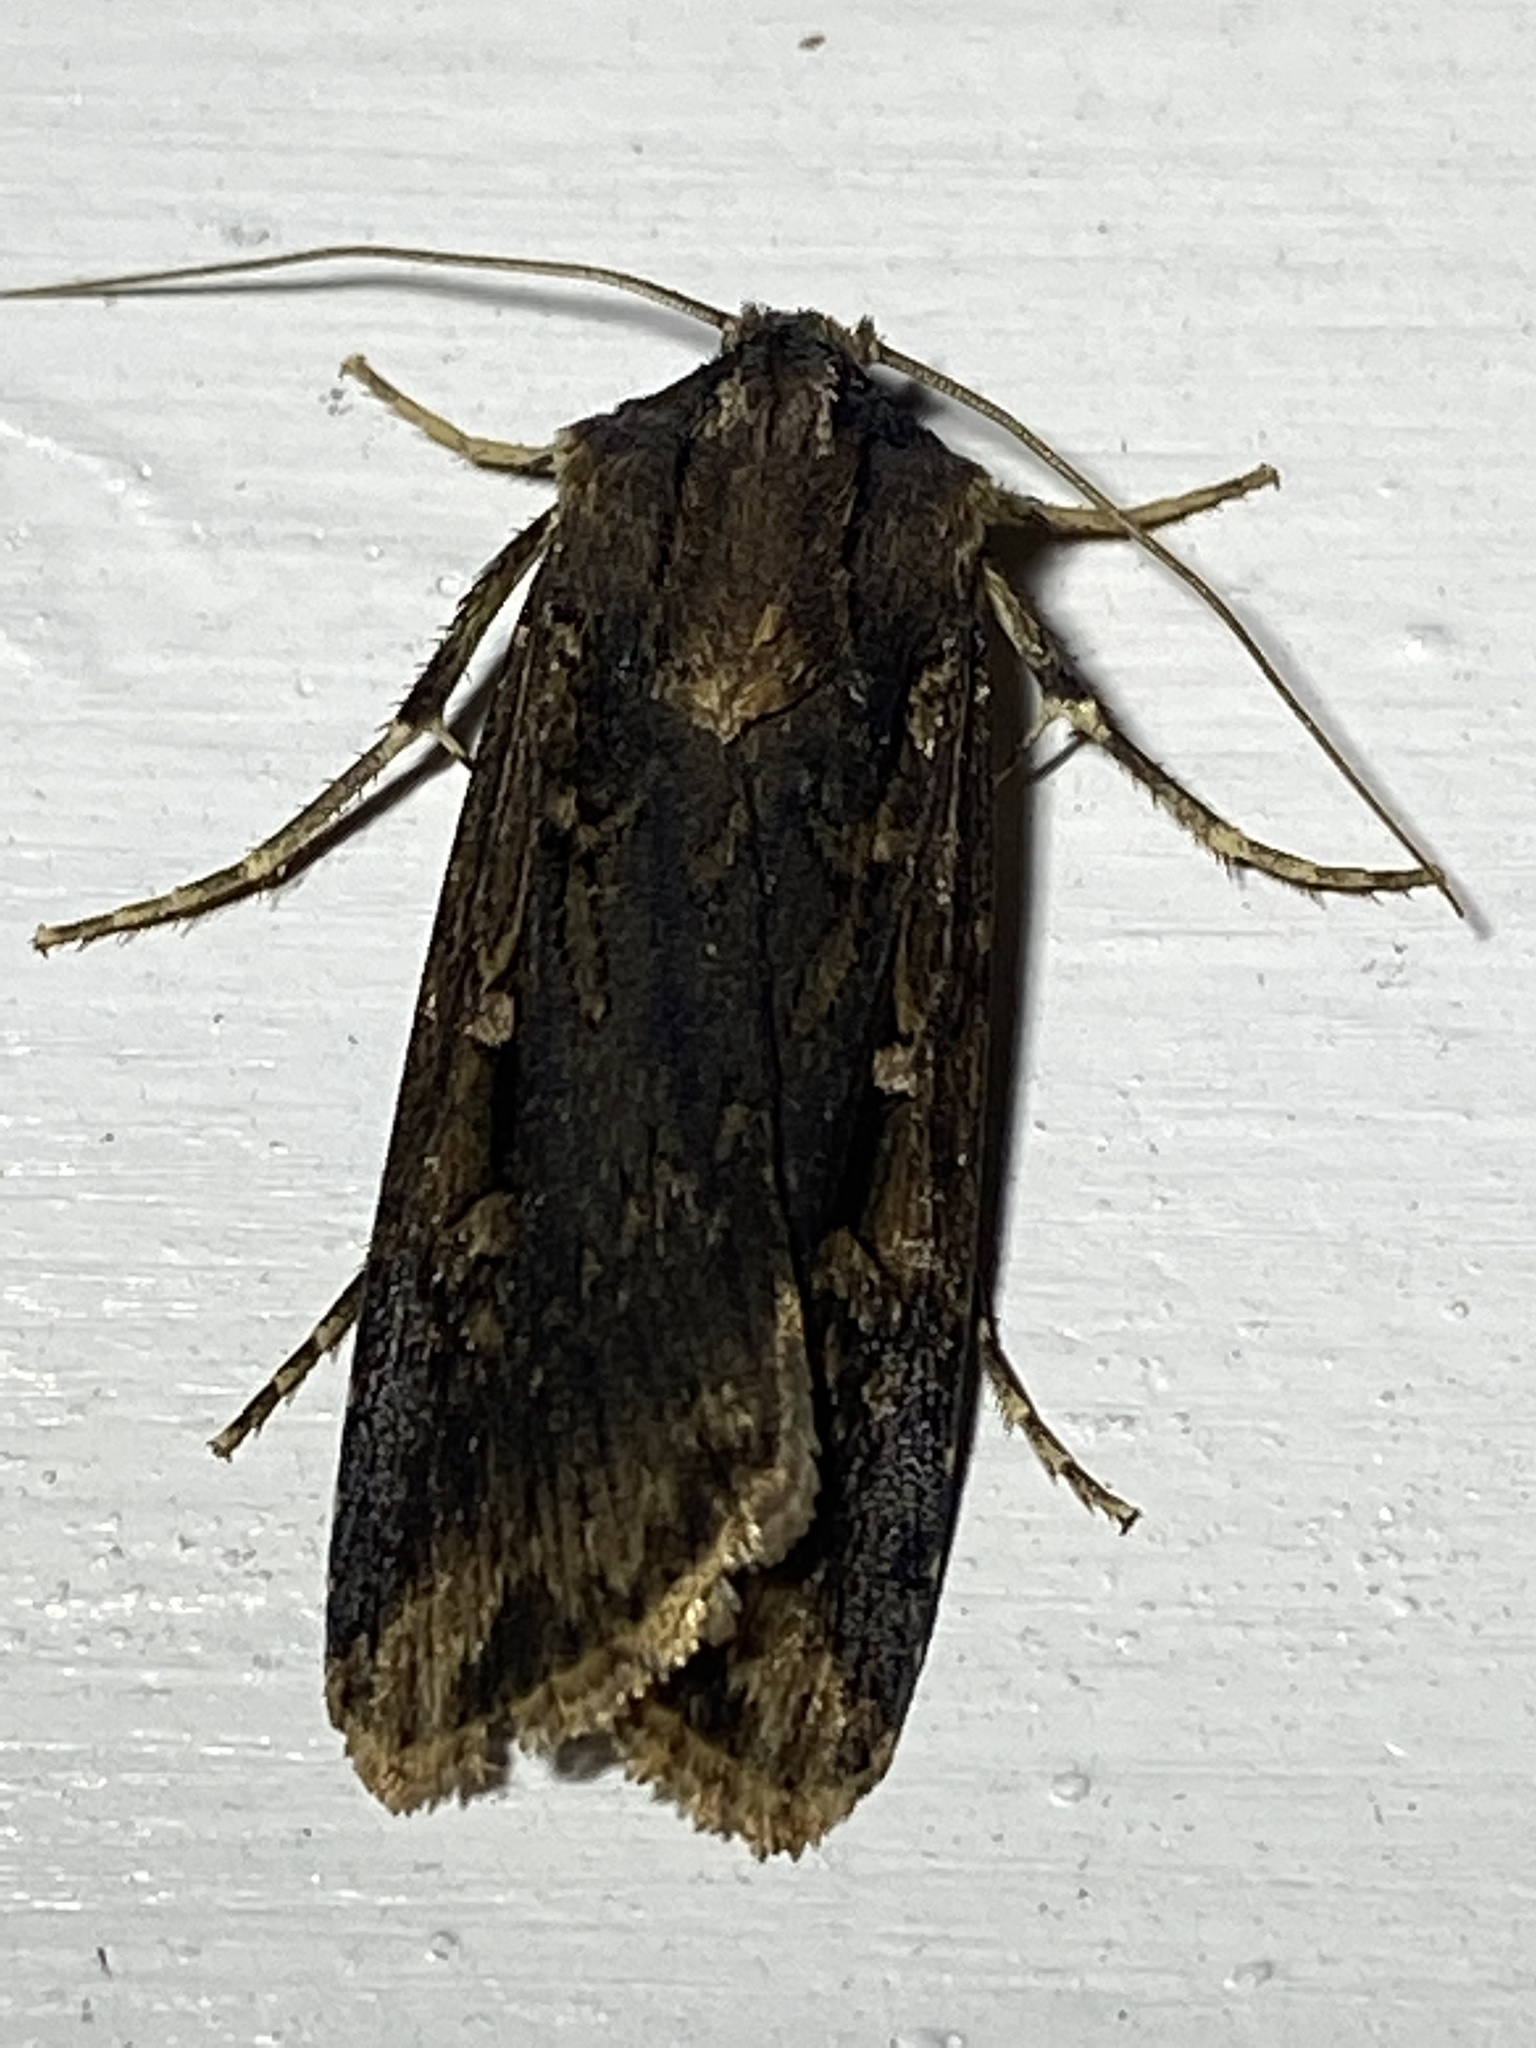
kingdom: Animalia
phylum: Arthropoda
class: Insecta
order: Lepidoptera
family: Noctuidae
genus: Feltia
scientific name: Feltia subterranea
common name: Granulate cutworm
